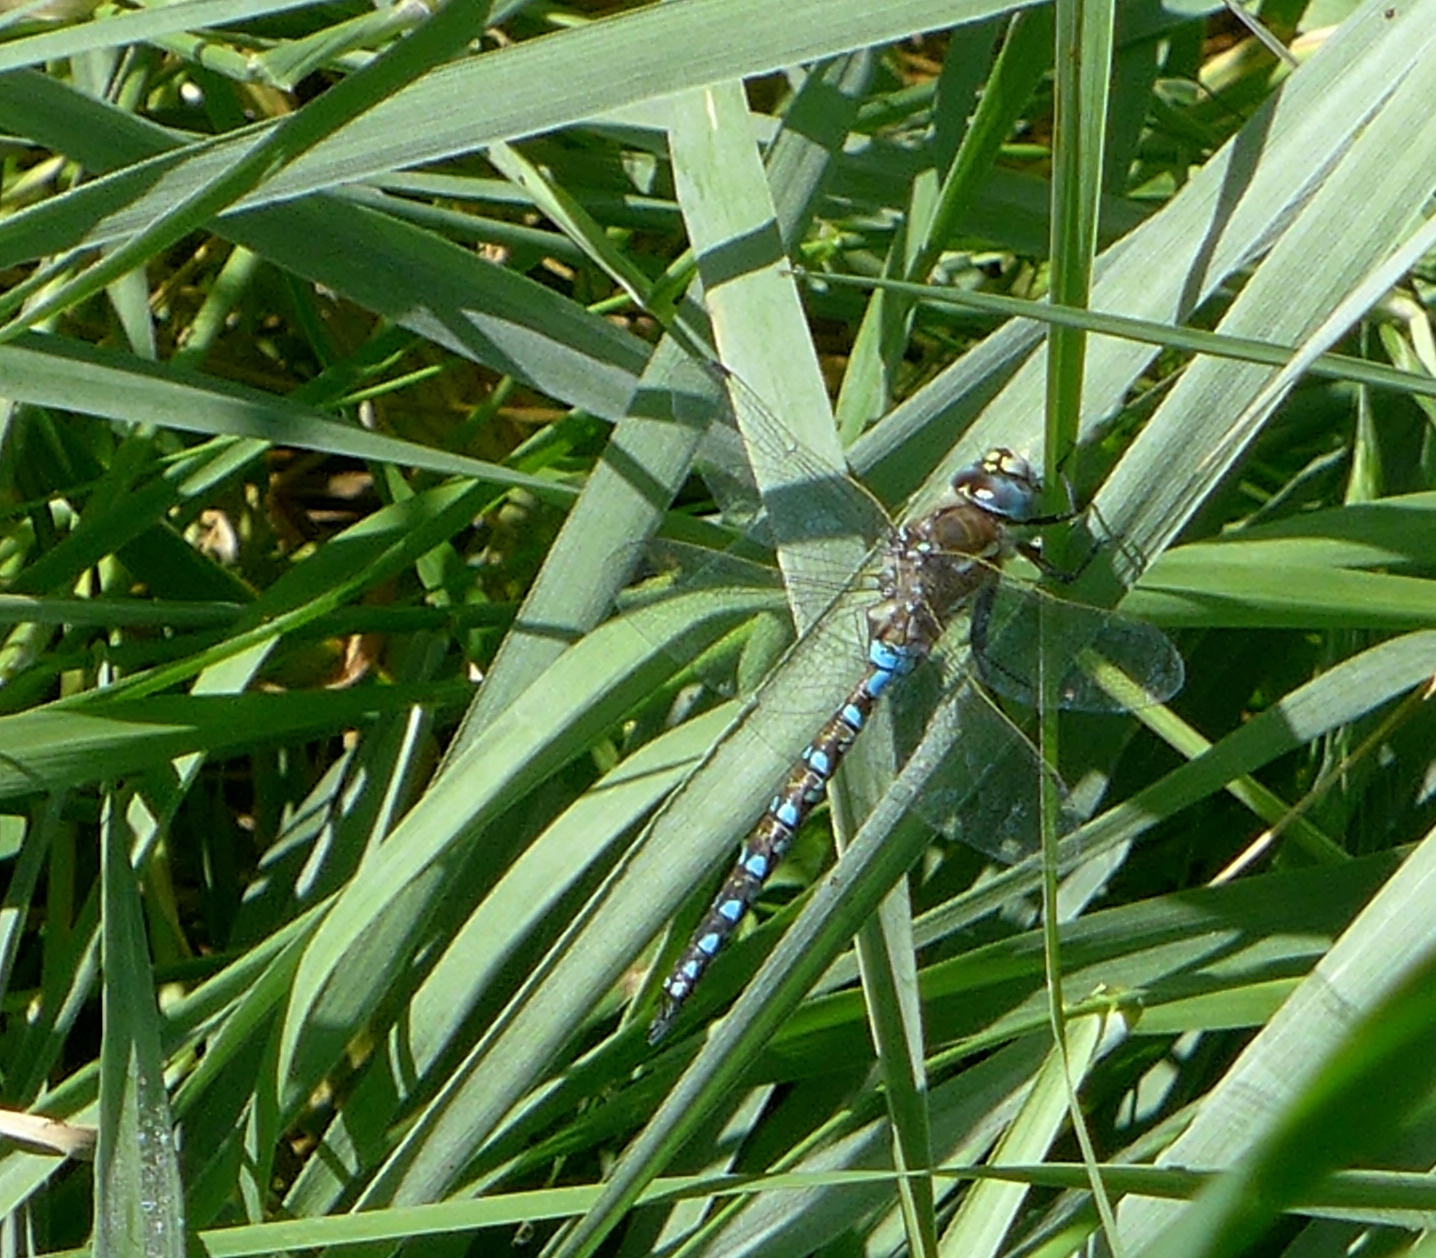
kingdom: Animalia
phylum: Arthropoda
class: Insecta
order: Odonata
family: Aeshnidae
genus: Rhionaeschna
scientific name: Rhionaeschna californica
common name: California darner
